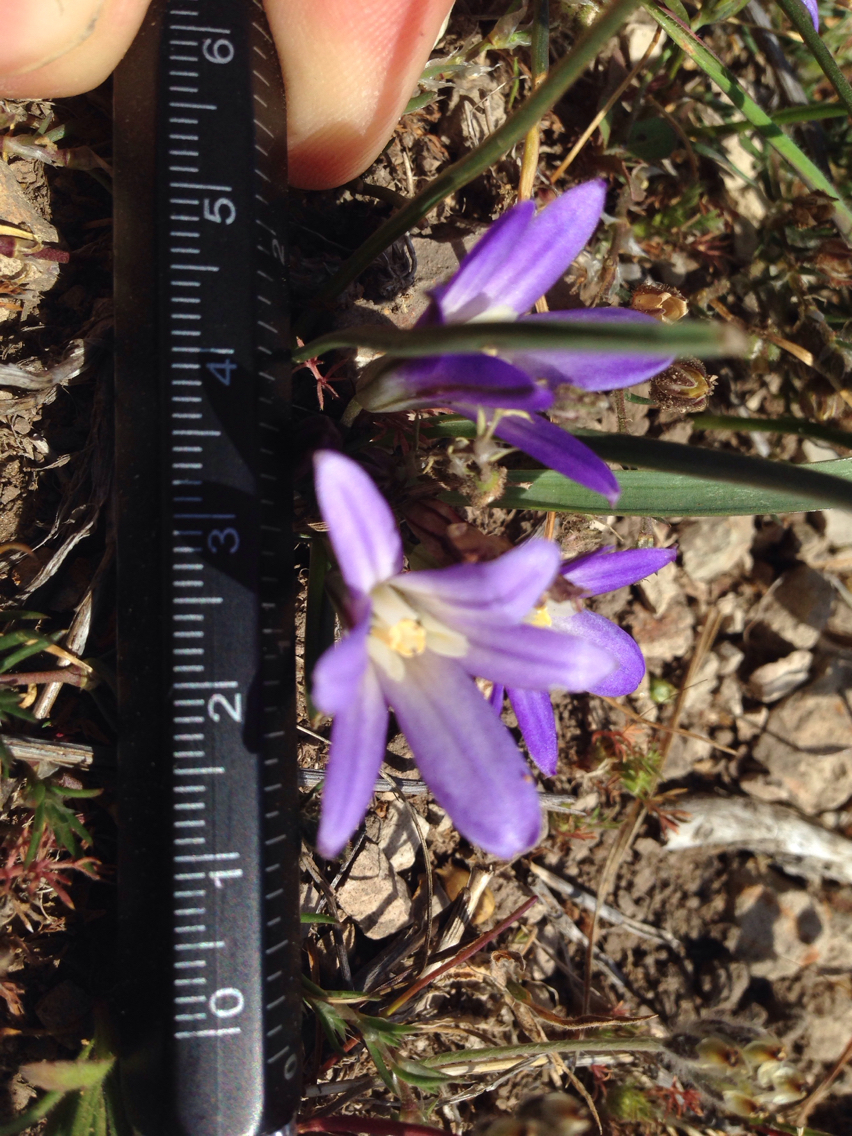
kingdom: Plantae
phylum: Tracheophyta
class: Liliopsida
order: Asparagales
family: Asparagaceae
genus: Brodiaea
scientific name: Brodiaea terrestris
